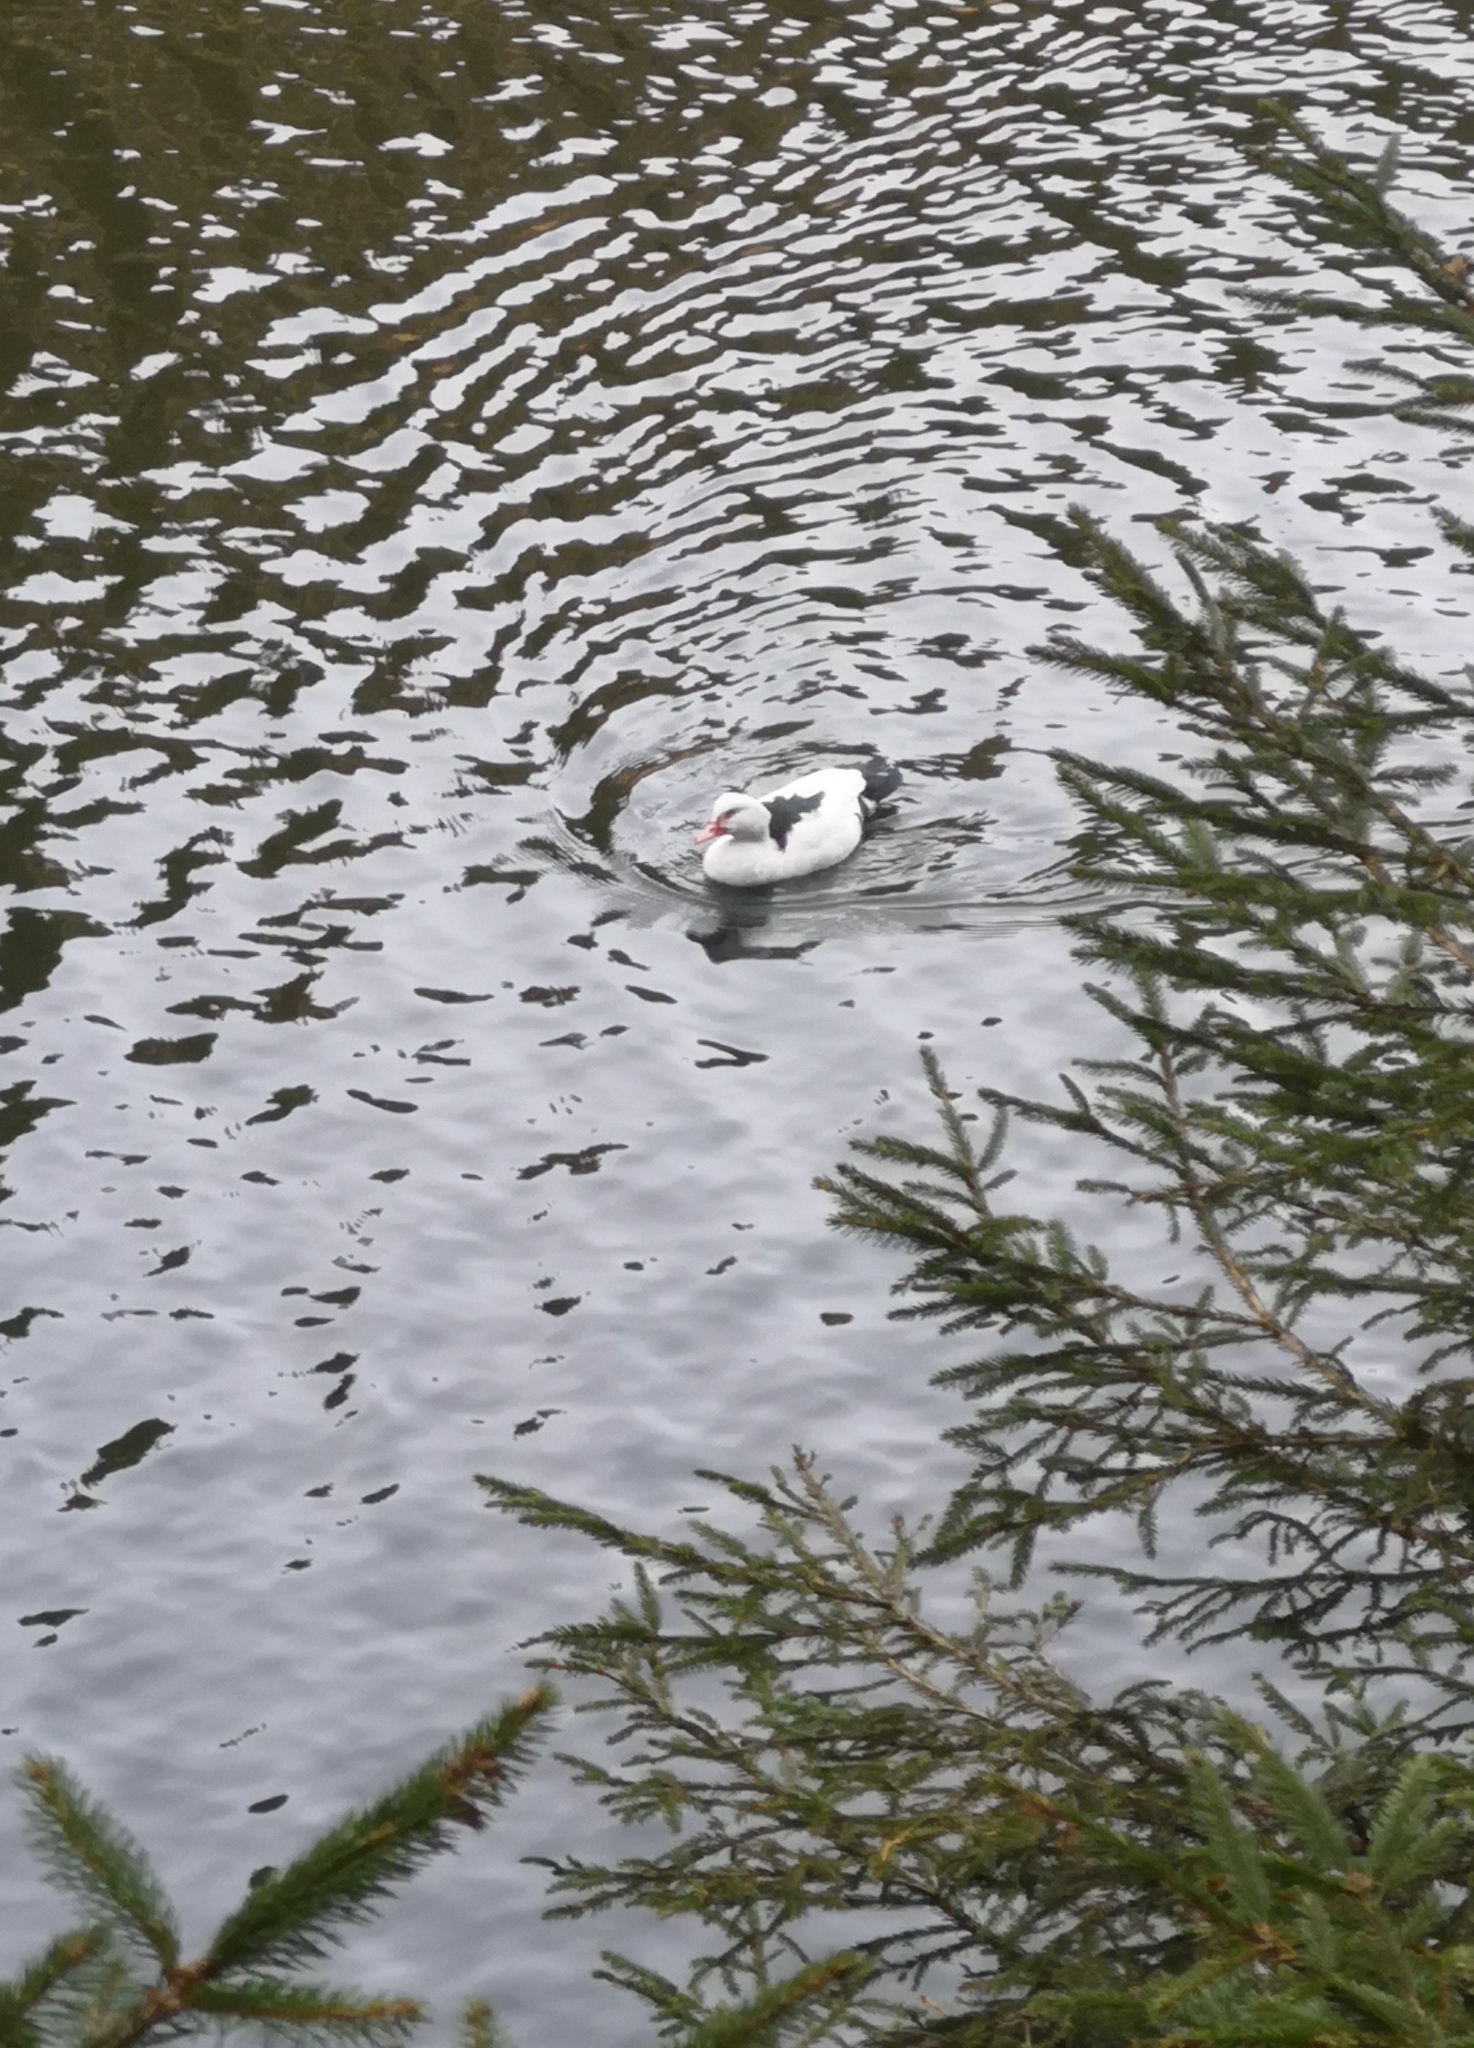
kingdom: Animalia
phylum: Chordata
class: Aves
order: Anseriformes
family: Anatidae
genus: Cairina
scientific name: Cairina moschata
